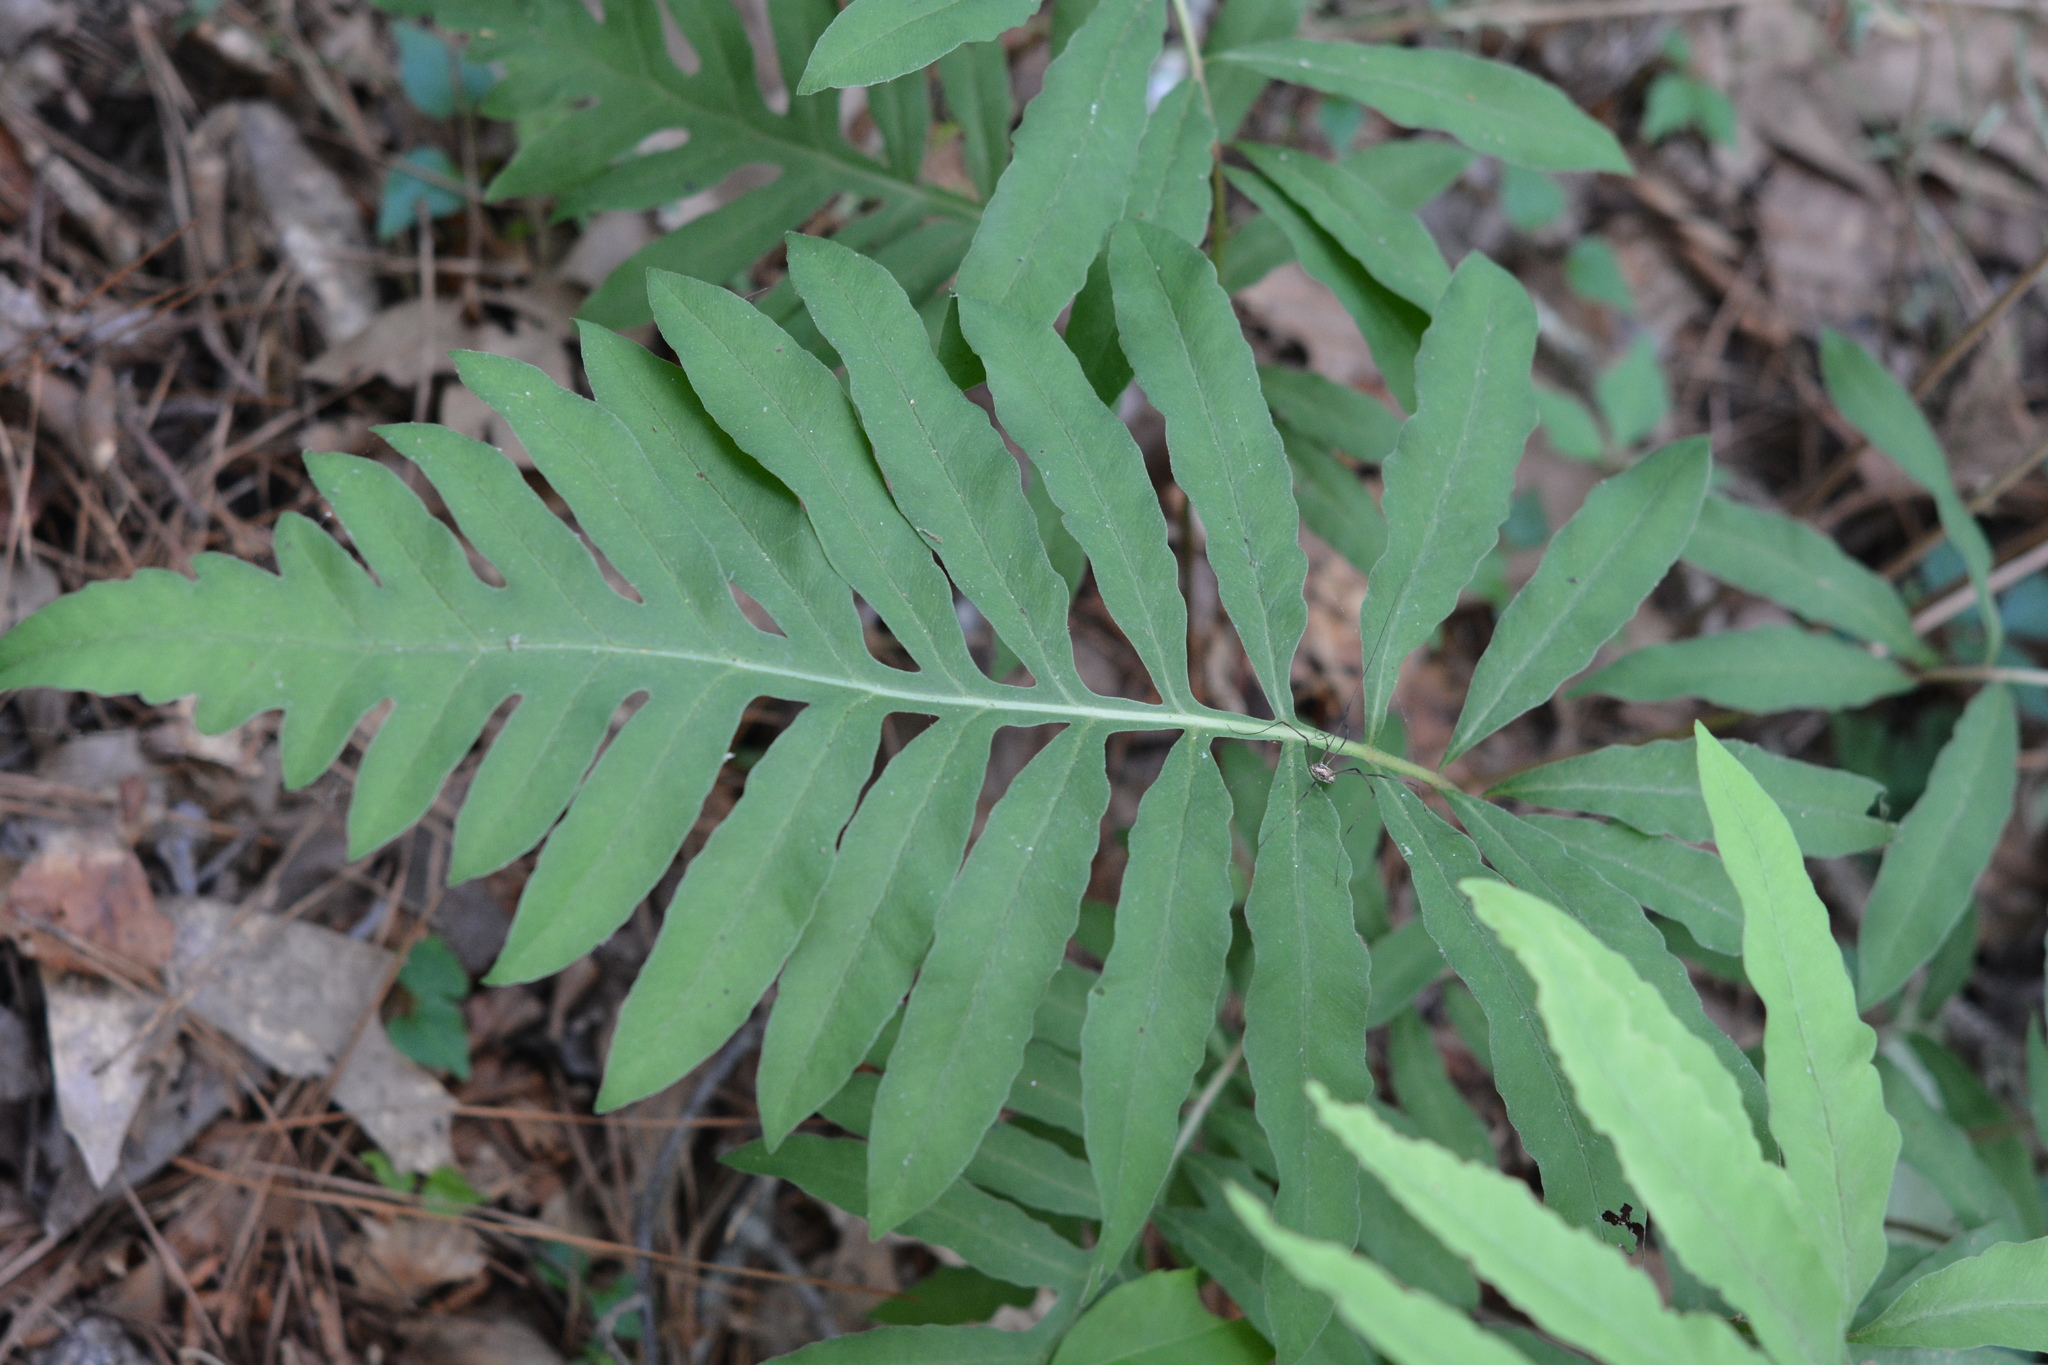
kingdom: Plantae
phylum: Tracheophyta
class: Polypodiopsida
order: Polypodiales
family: Onocleaceae
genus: Onoclea
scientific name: Onoclea sensibilis
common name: Sensitive fern
